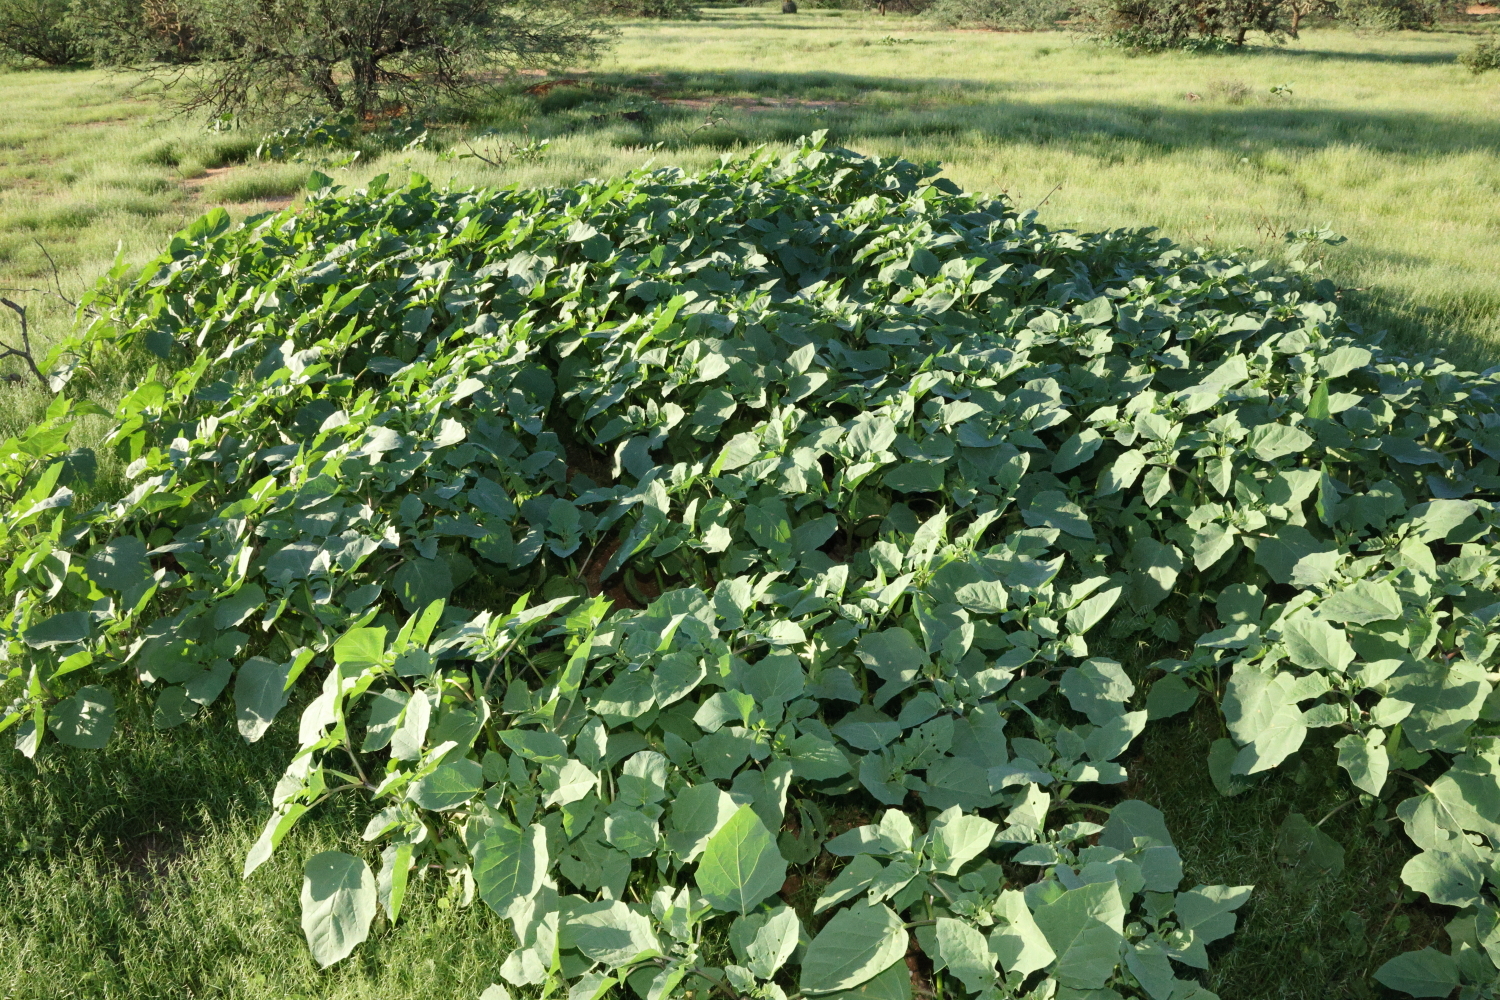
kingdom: Plantae
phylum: Tracheophyta
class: Magnoliopsida
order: Solanales
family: Solanaceae
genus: Datura
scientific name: Datura discolor
